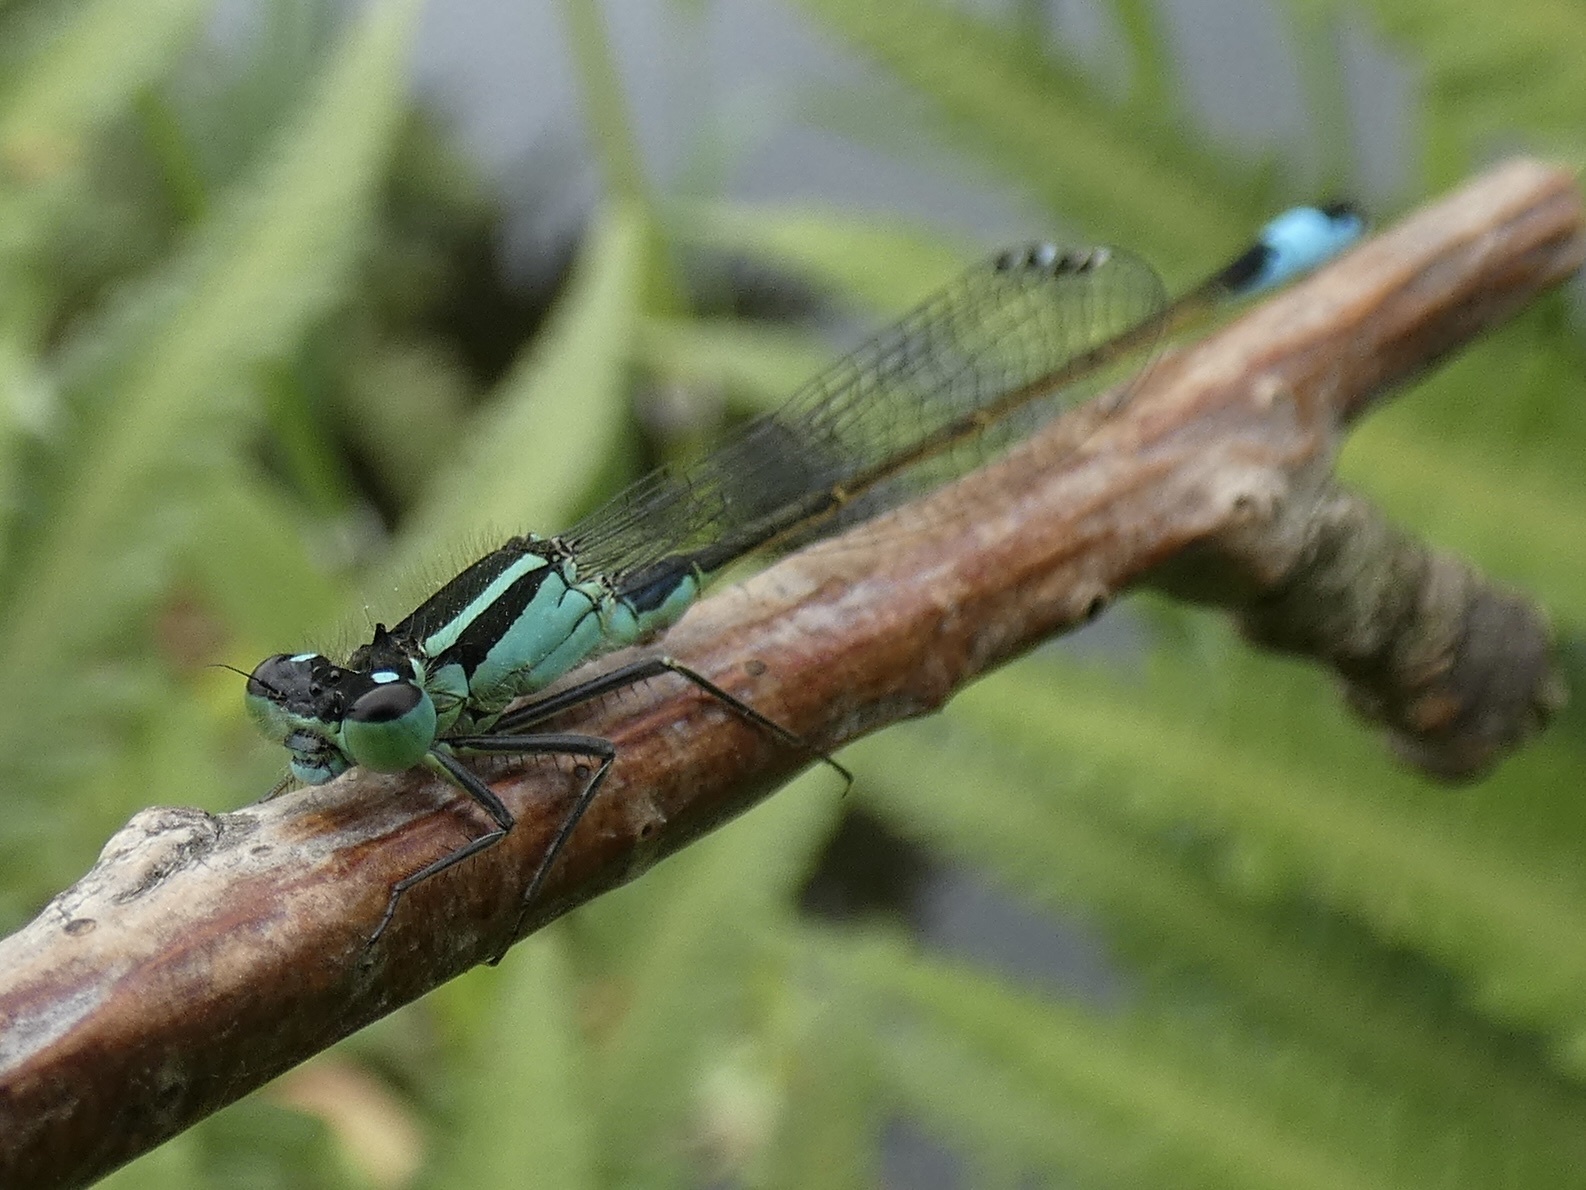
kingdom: Animalia
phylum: Arthropoda
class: Insecta
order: Odonata
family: Coenagrionidae
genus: Ischnura
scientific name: Ischnura elegans
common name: Blue-tailed damselfly
